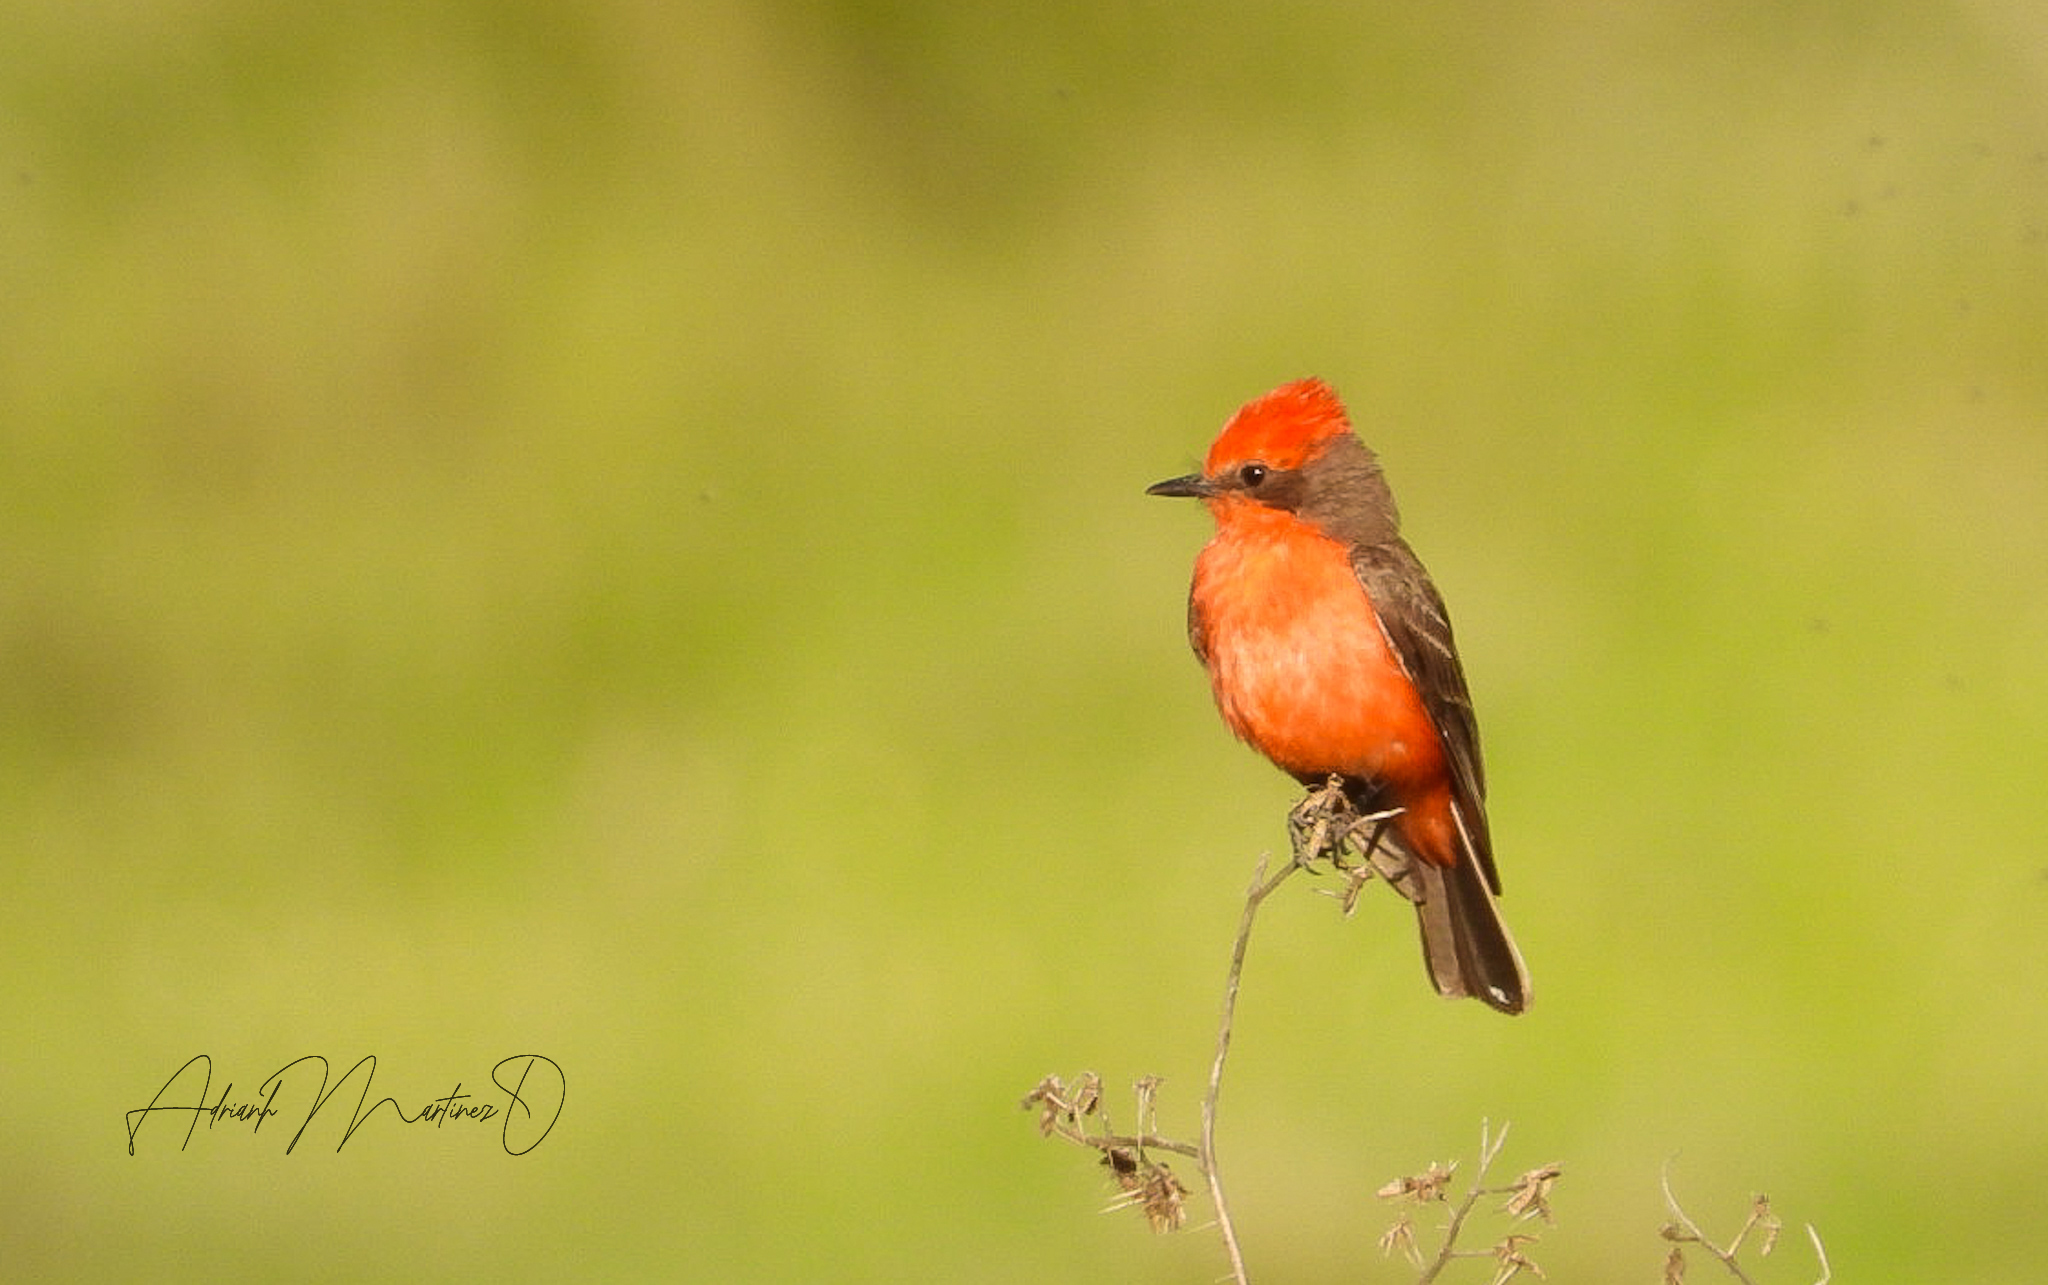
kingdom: Animalia
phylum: Chordata
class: Aves
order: Passeriformes
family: Tyrannidae
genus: Pyrocephalus
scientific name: Pyrocephalus rubinus
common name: Vermilion flycatcher
